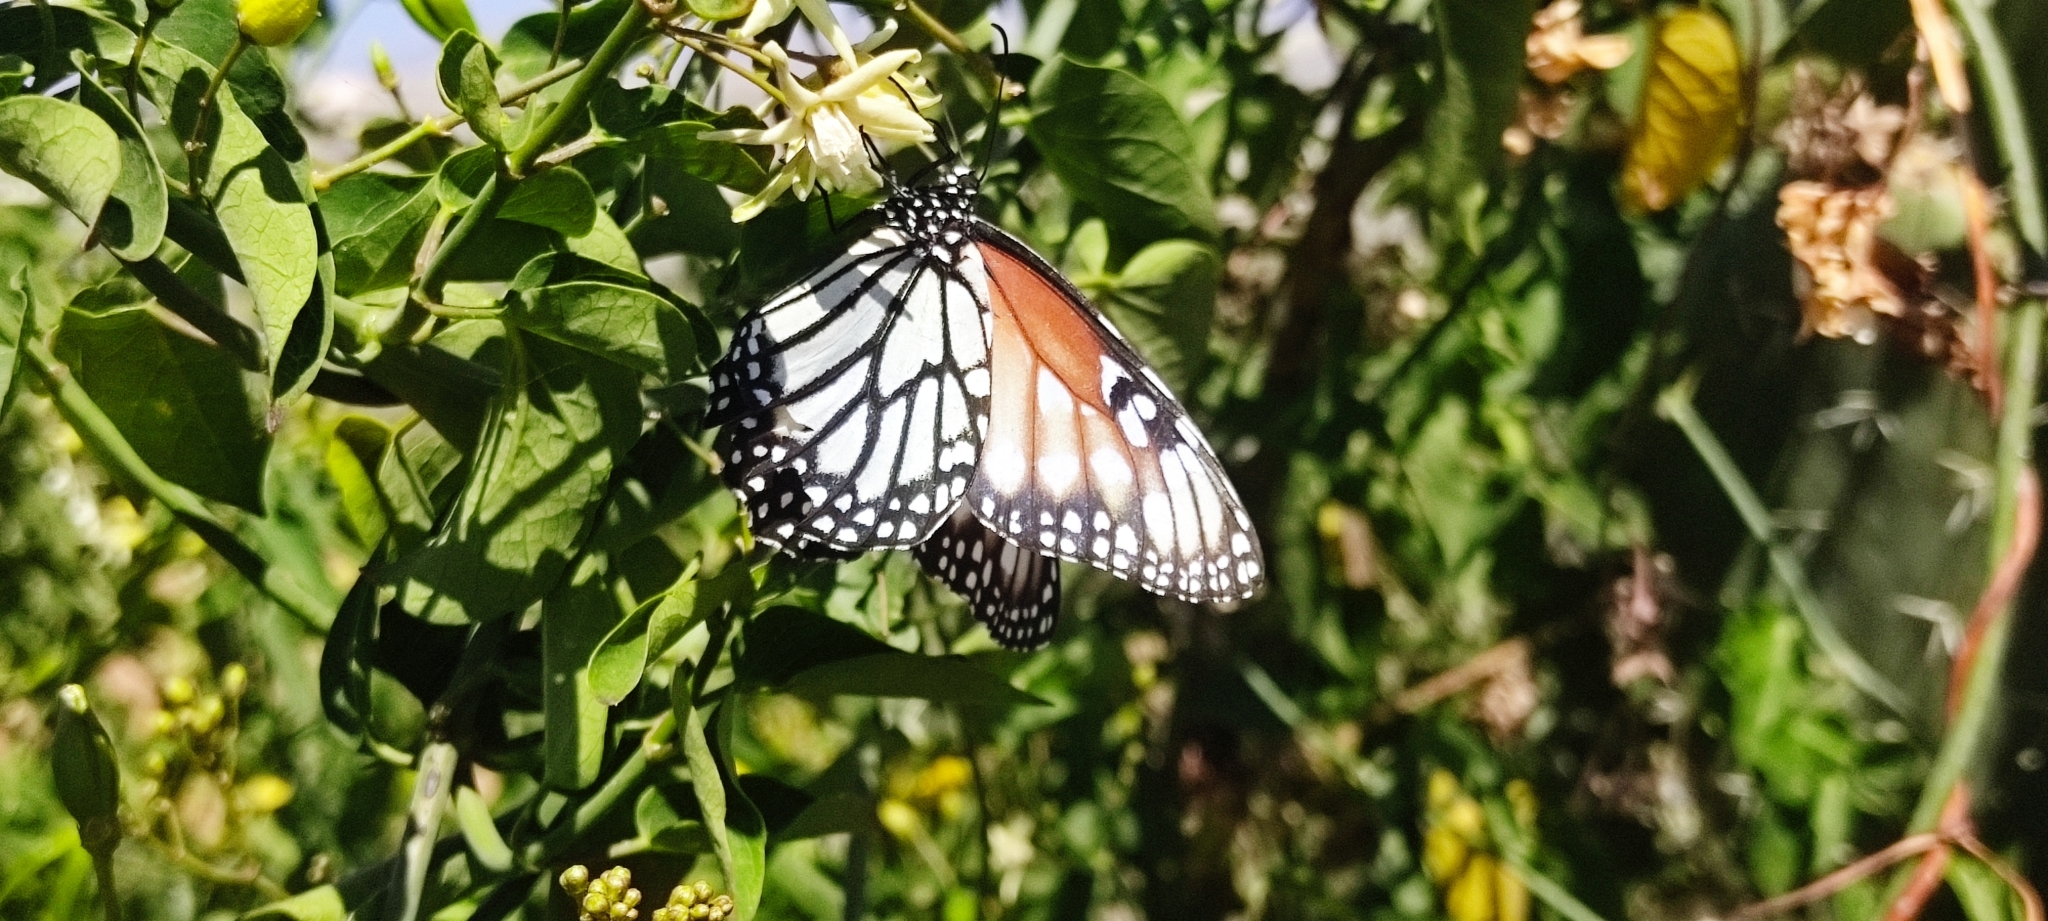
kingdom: Animalia
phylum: Arthropoda
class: Insecta
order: Lepidoptera
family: Nymphalidae
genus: Danaus
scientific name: Danaus gilippus
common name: Queen
